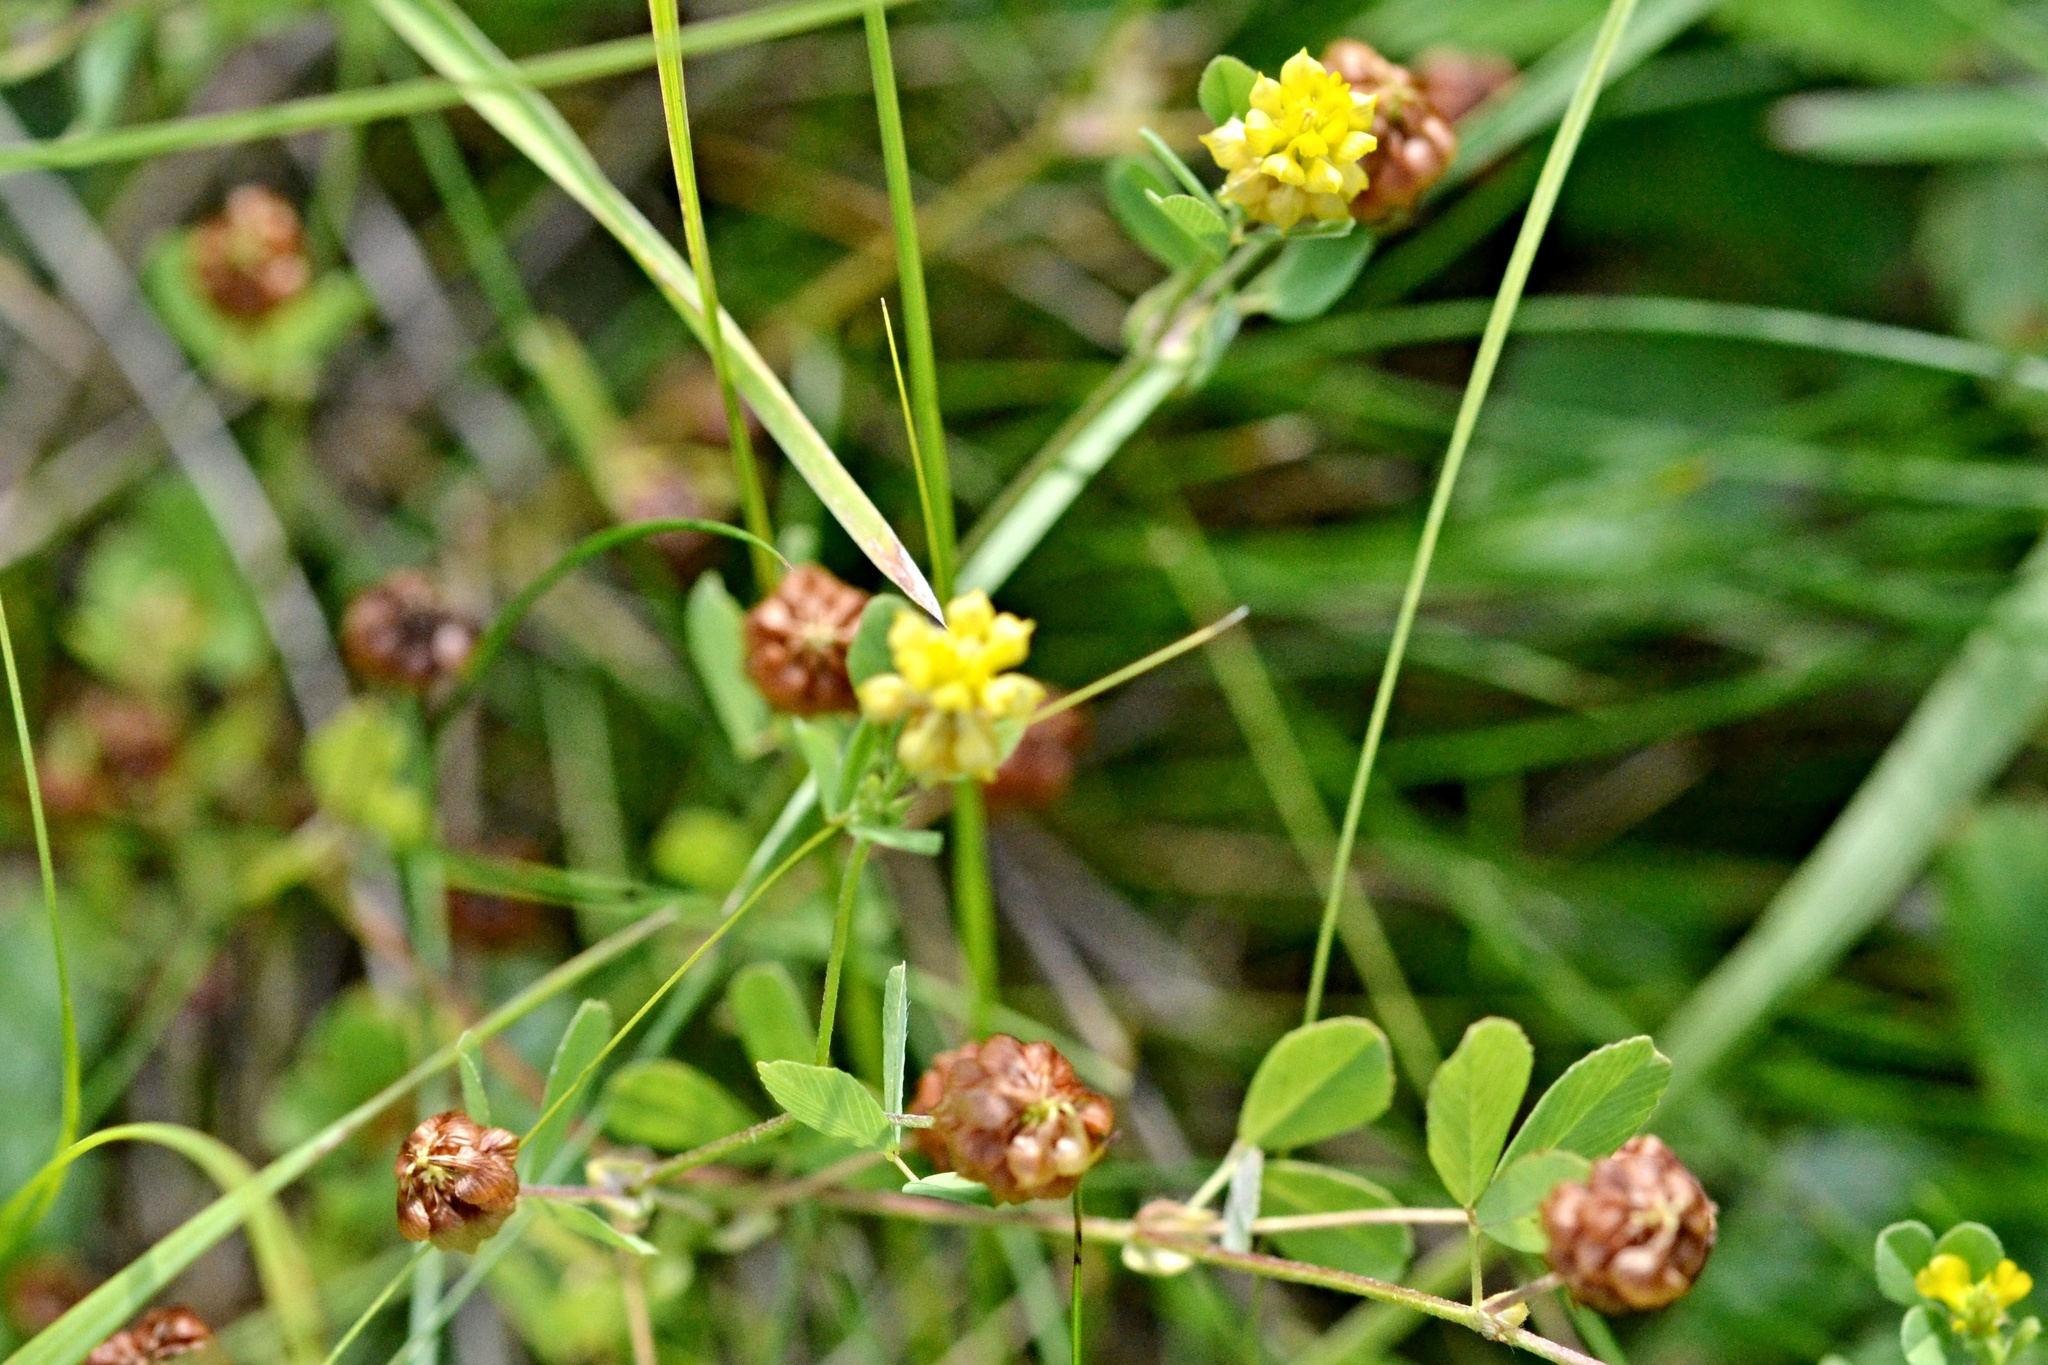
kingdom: Plantae
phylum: Tracheophyta
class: Magnoliopsida
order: Fabales
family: Fabaceae
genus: Trifolium
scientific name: Trifolium campestre
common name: Field clover
